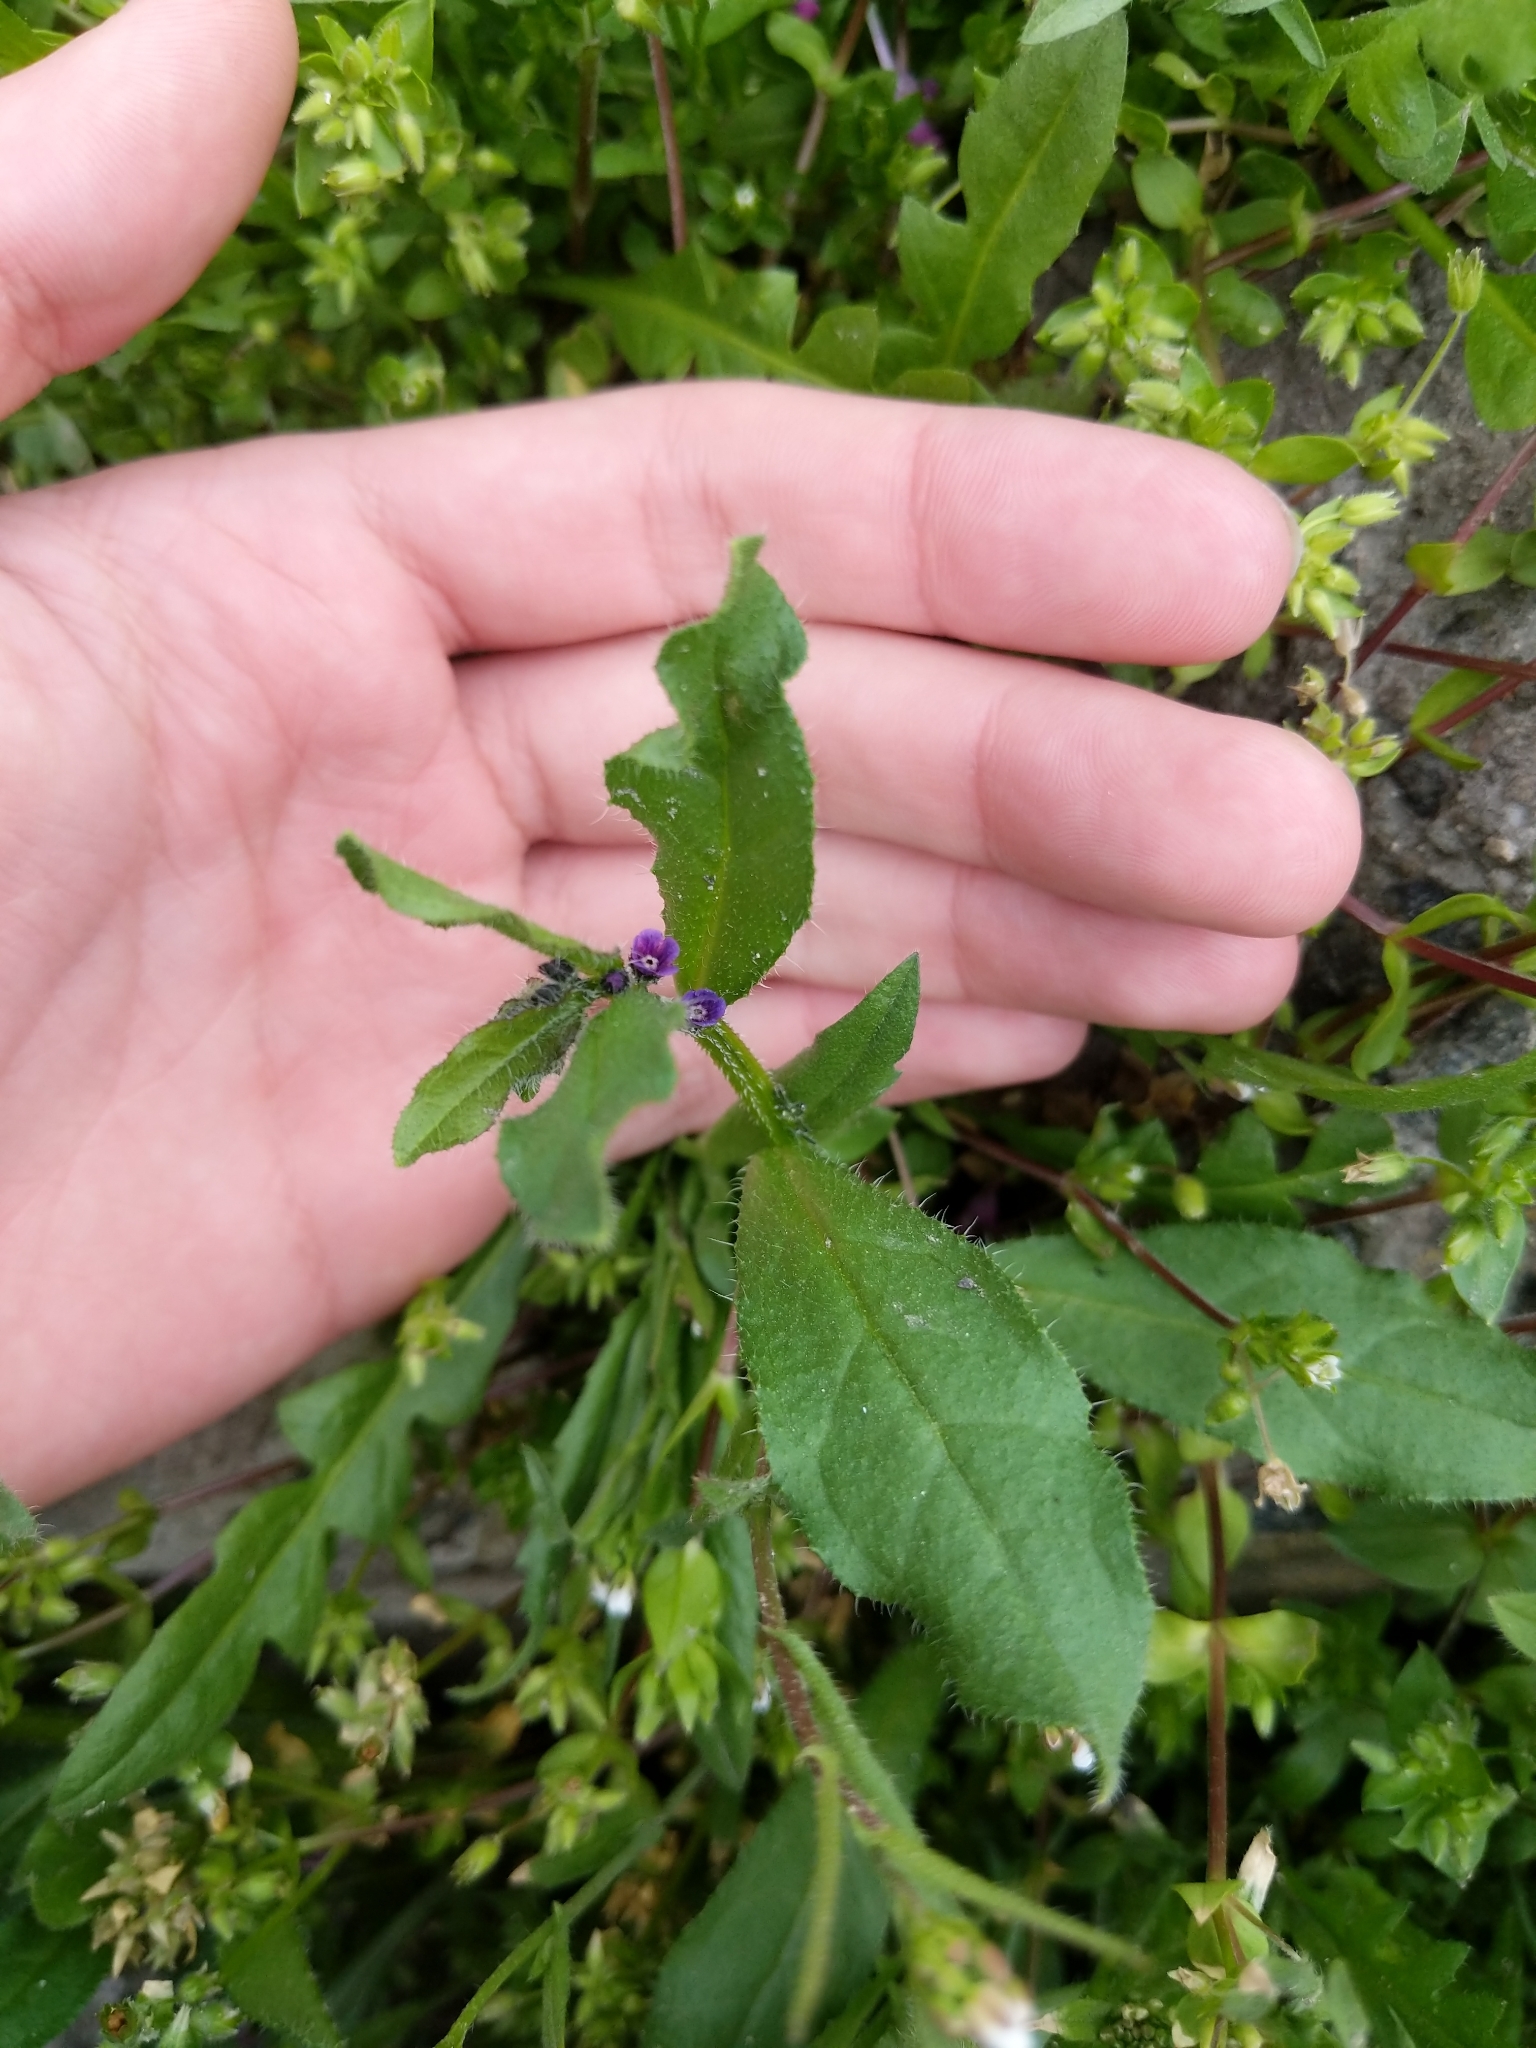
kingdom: Plantae
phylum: Tracheophyta
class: Magnoliopsida
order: Boraginales
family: Boraginaceae
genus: Asperugo
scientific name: Asperugo procumbens
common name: Madwort
